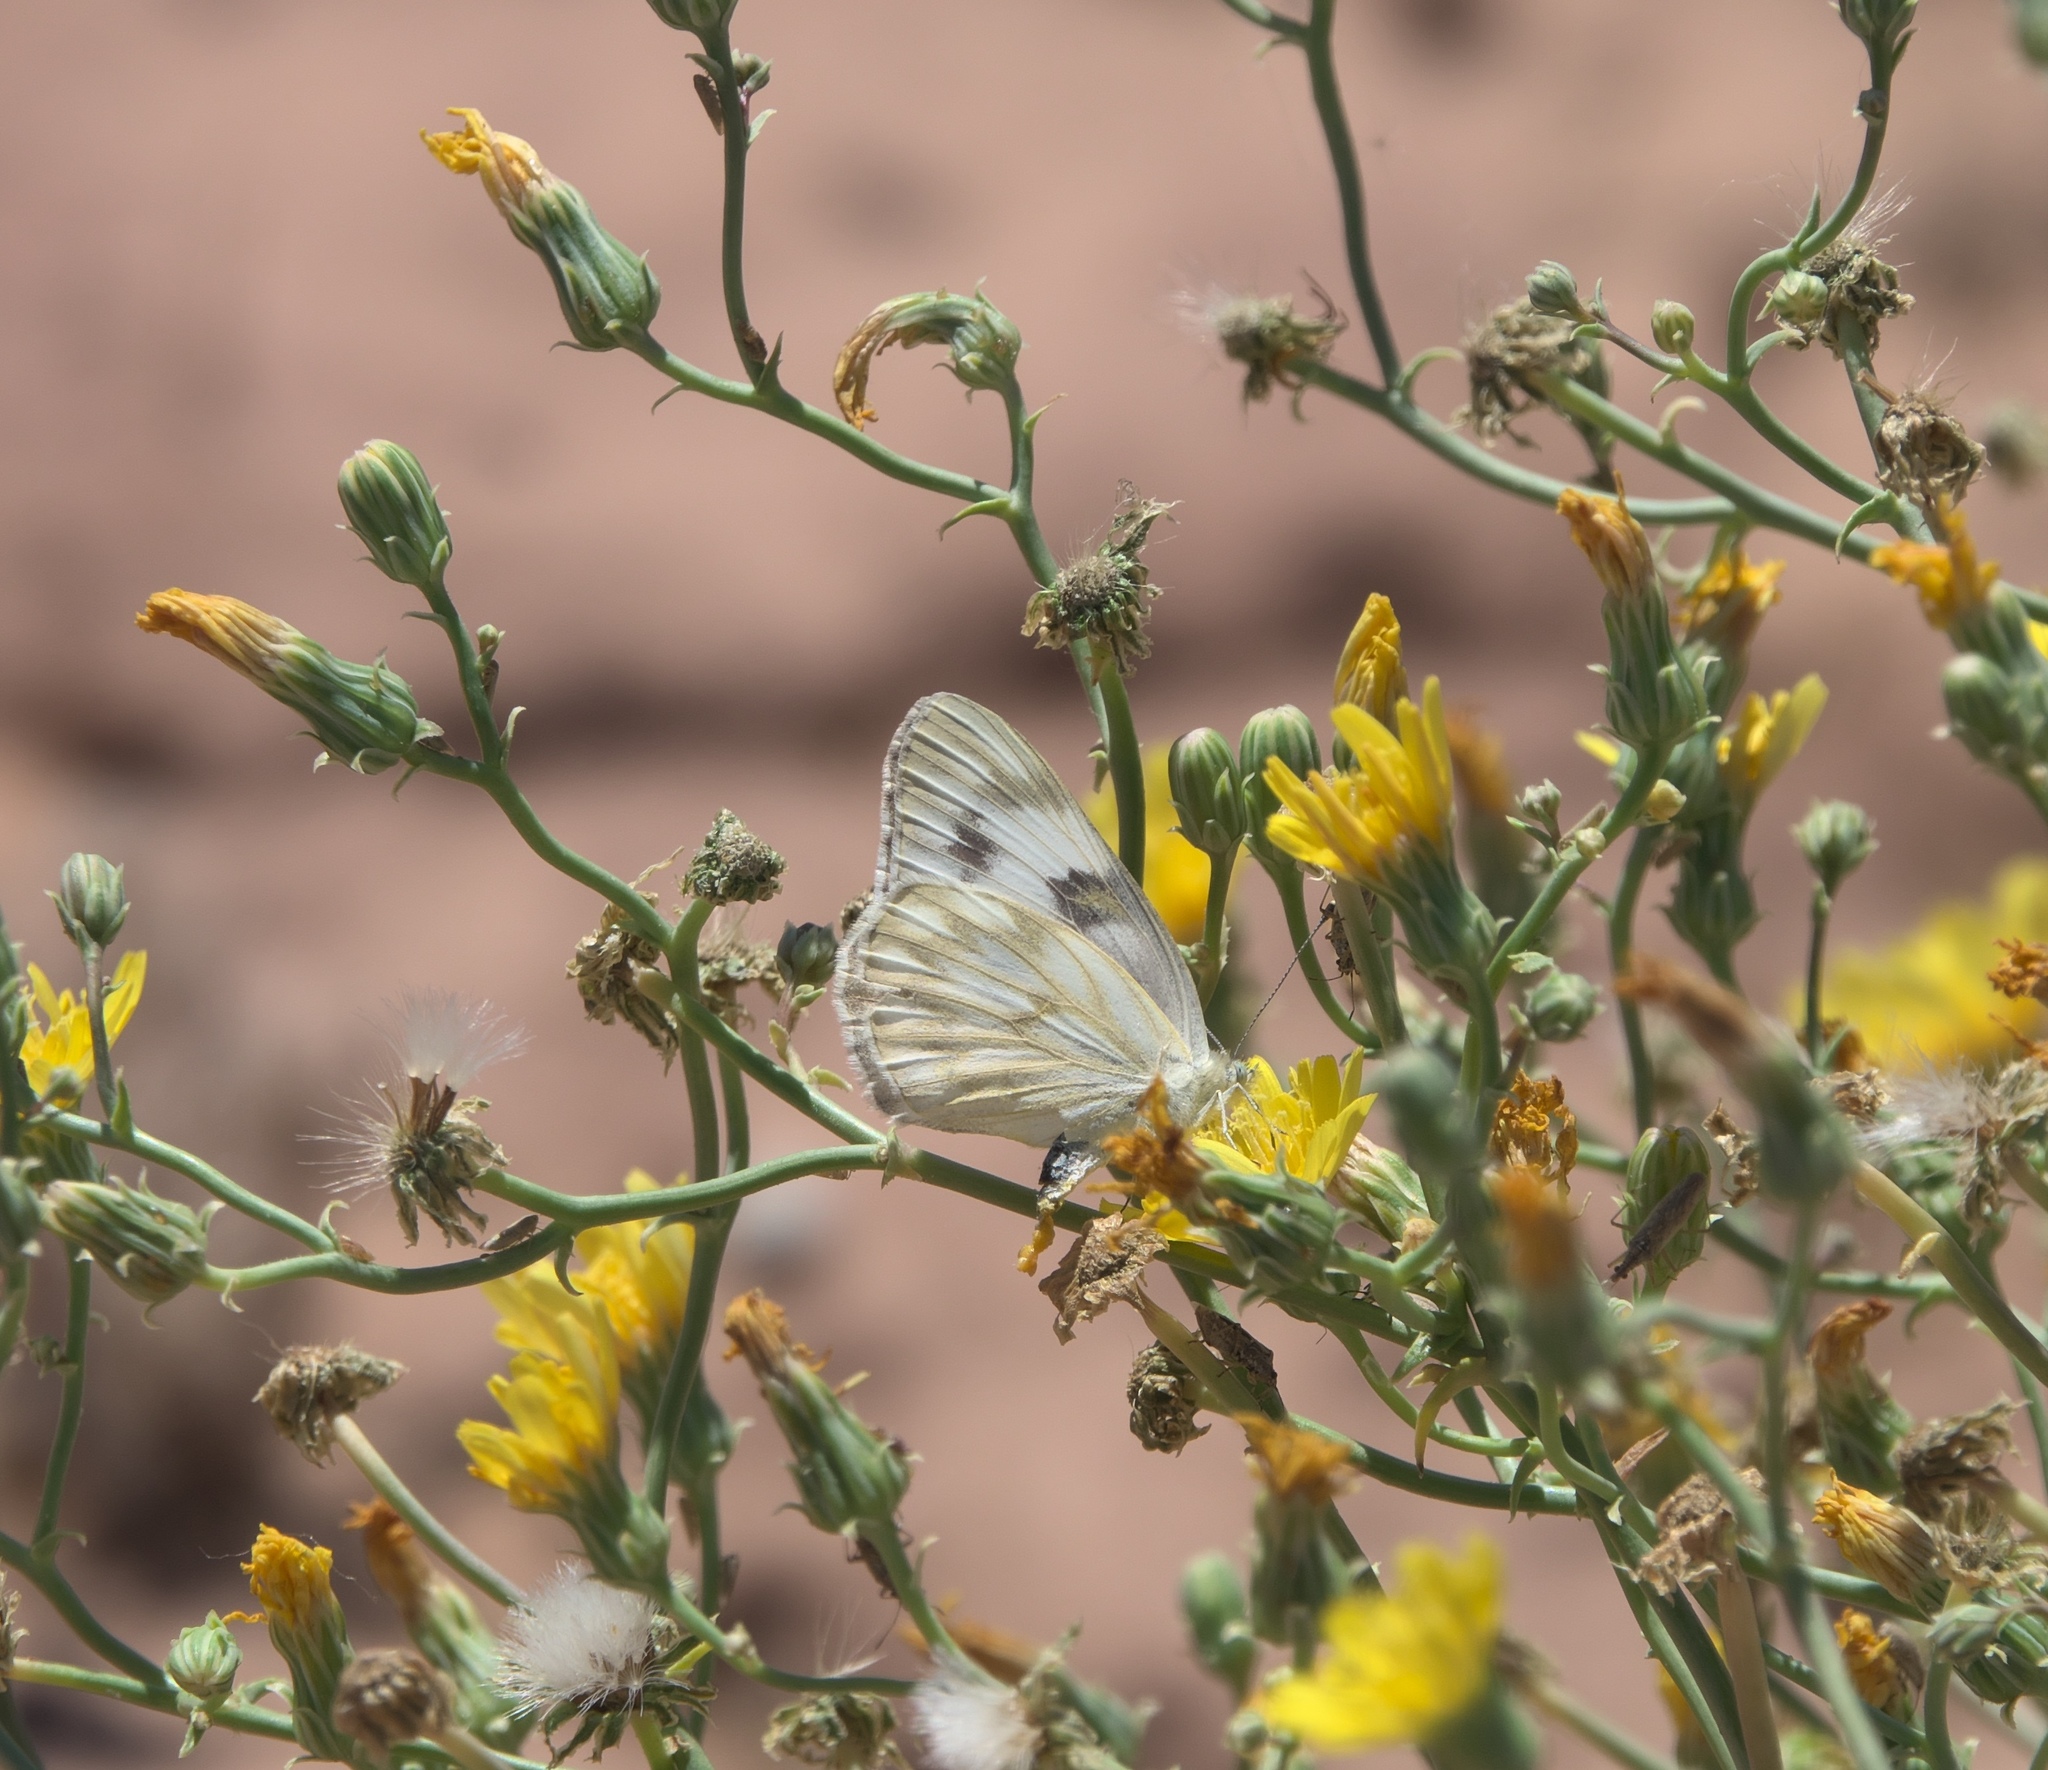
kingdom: Animalia
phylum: Arthropoda
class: Insecta
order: Lepidoptera
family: Pieridae
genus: Pontia
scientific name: Pontia protodice
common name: Checkered white
